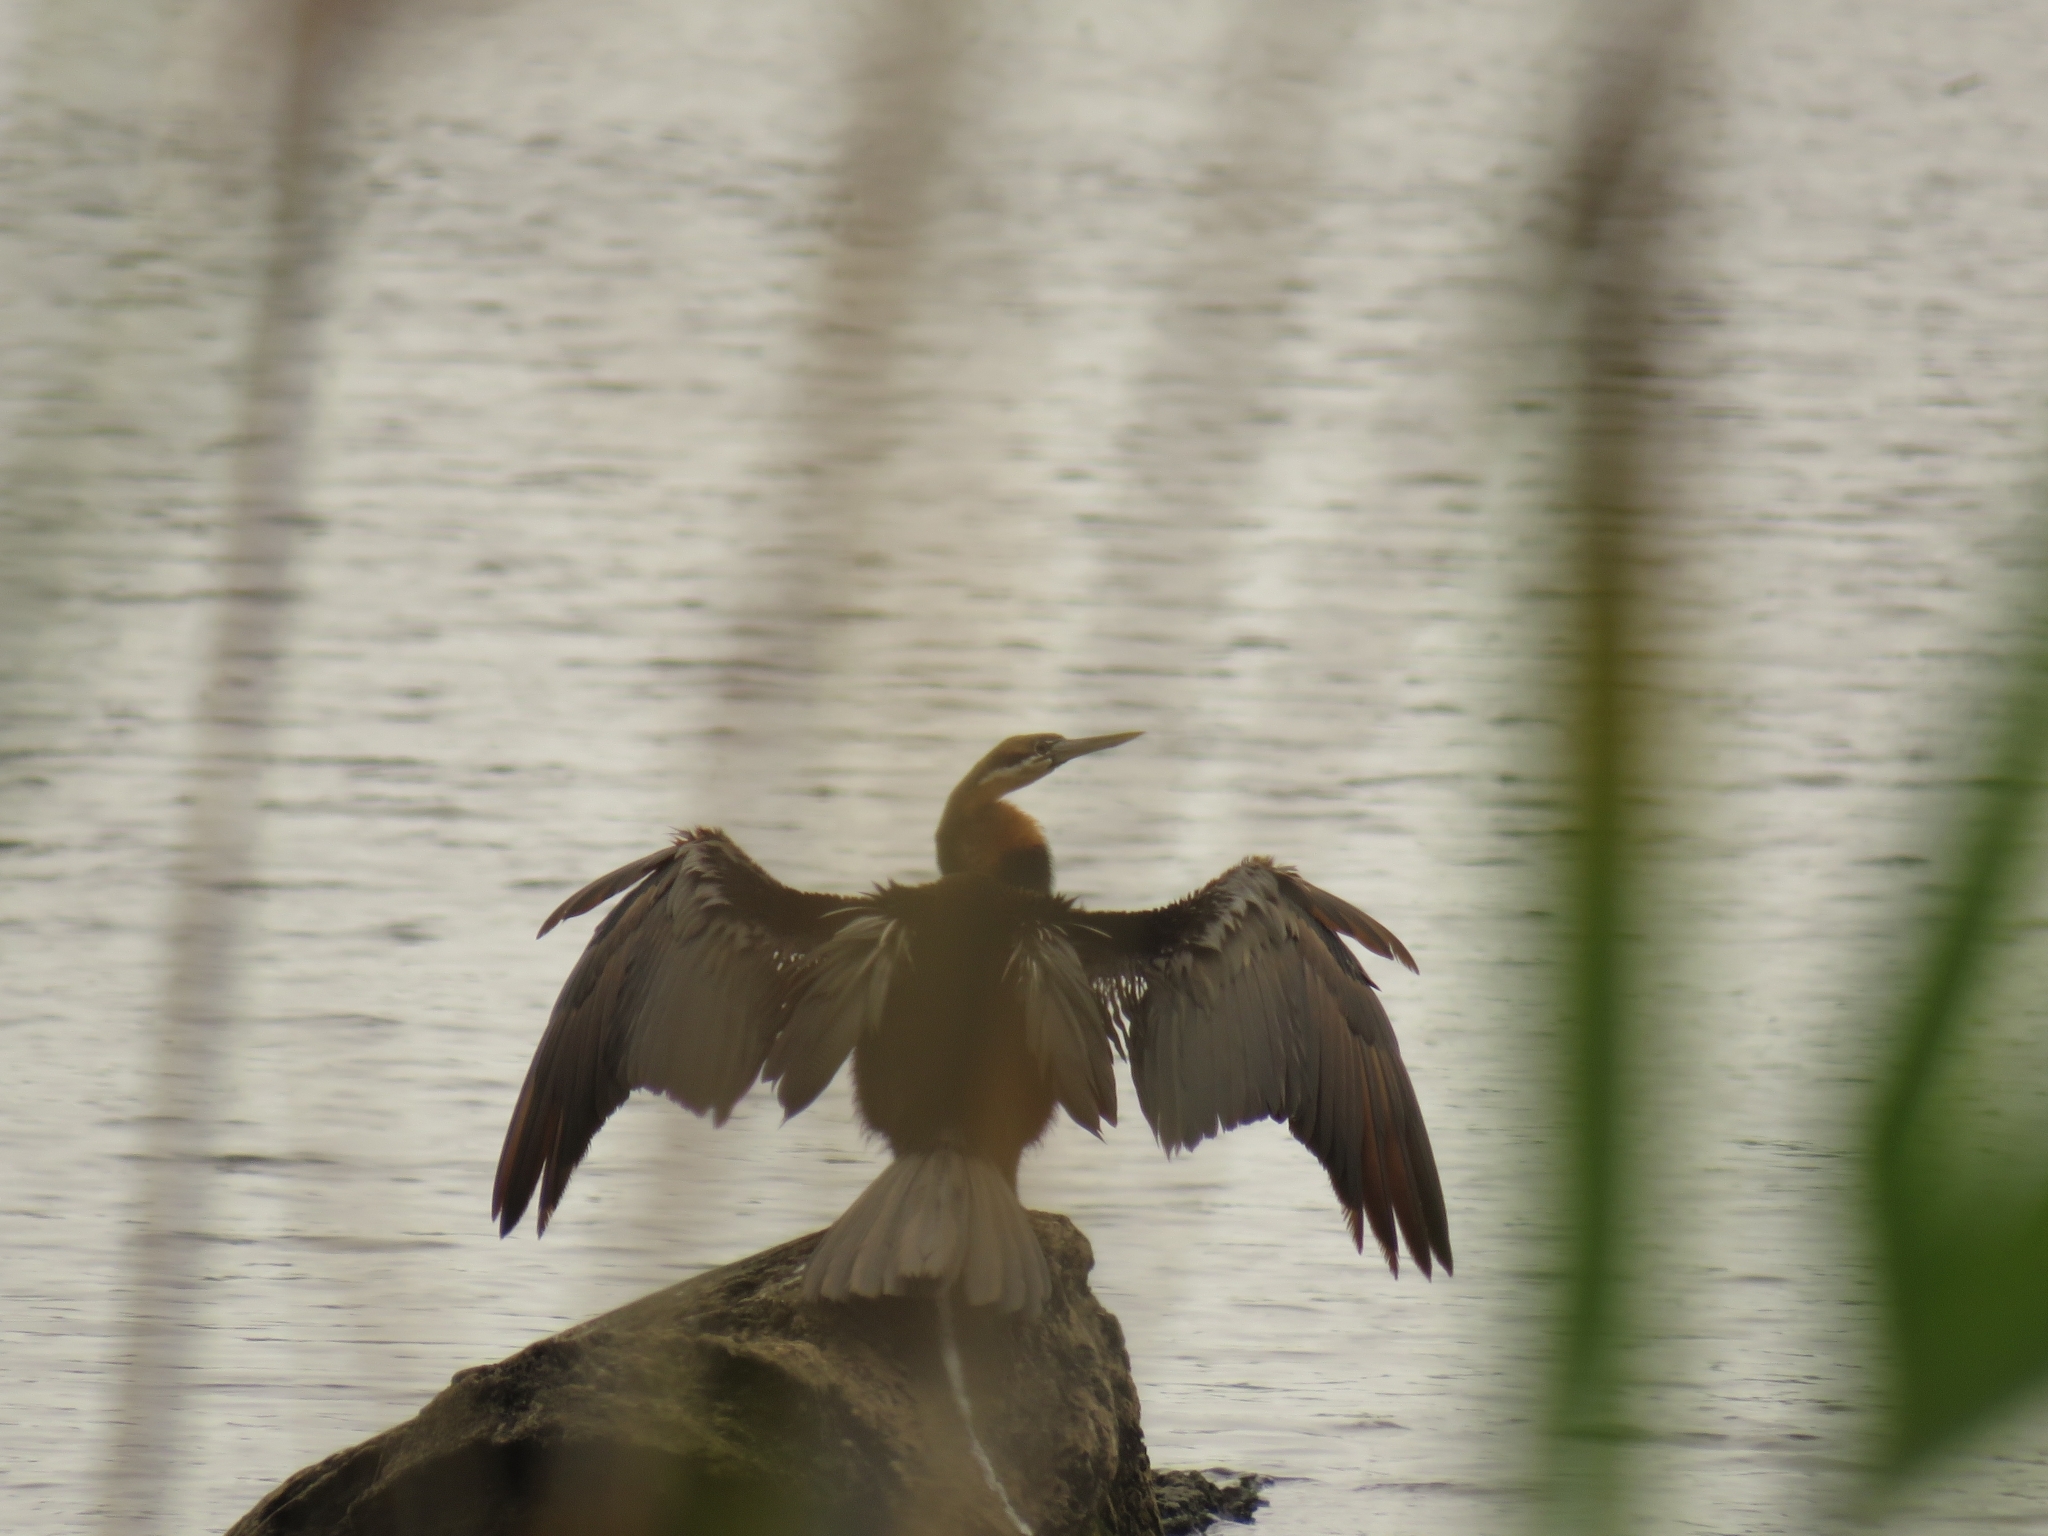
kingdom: Animalia
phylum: Chordata
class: Aves
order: Suliformes
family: Anhingidae
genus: Anhinga
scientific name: Anhinga rufa
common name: African darter
